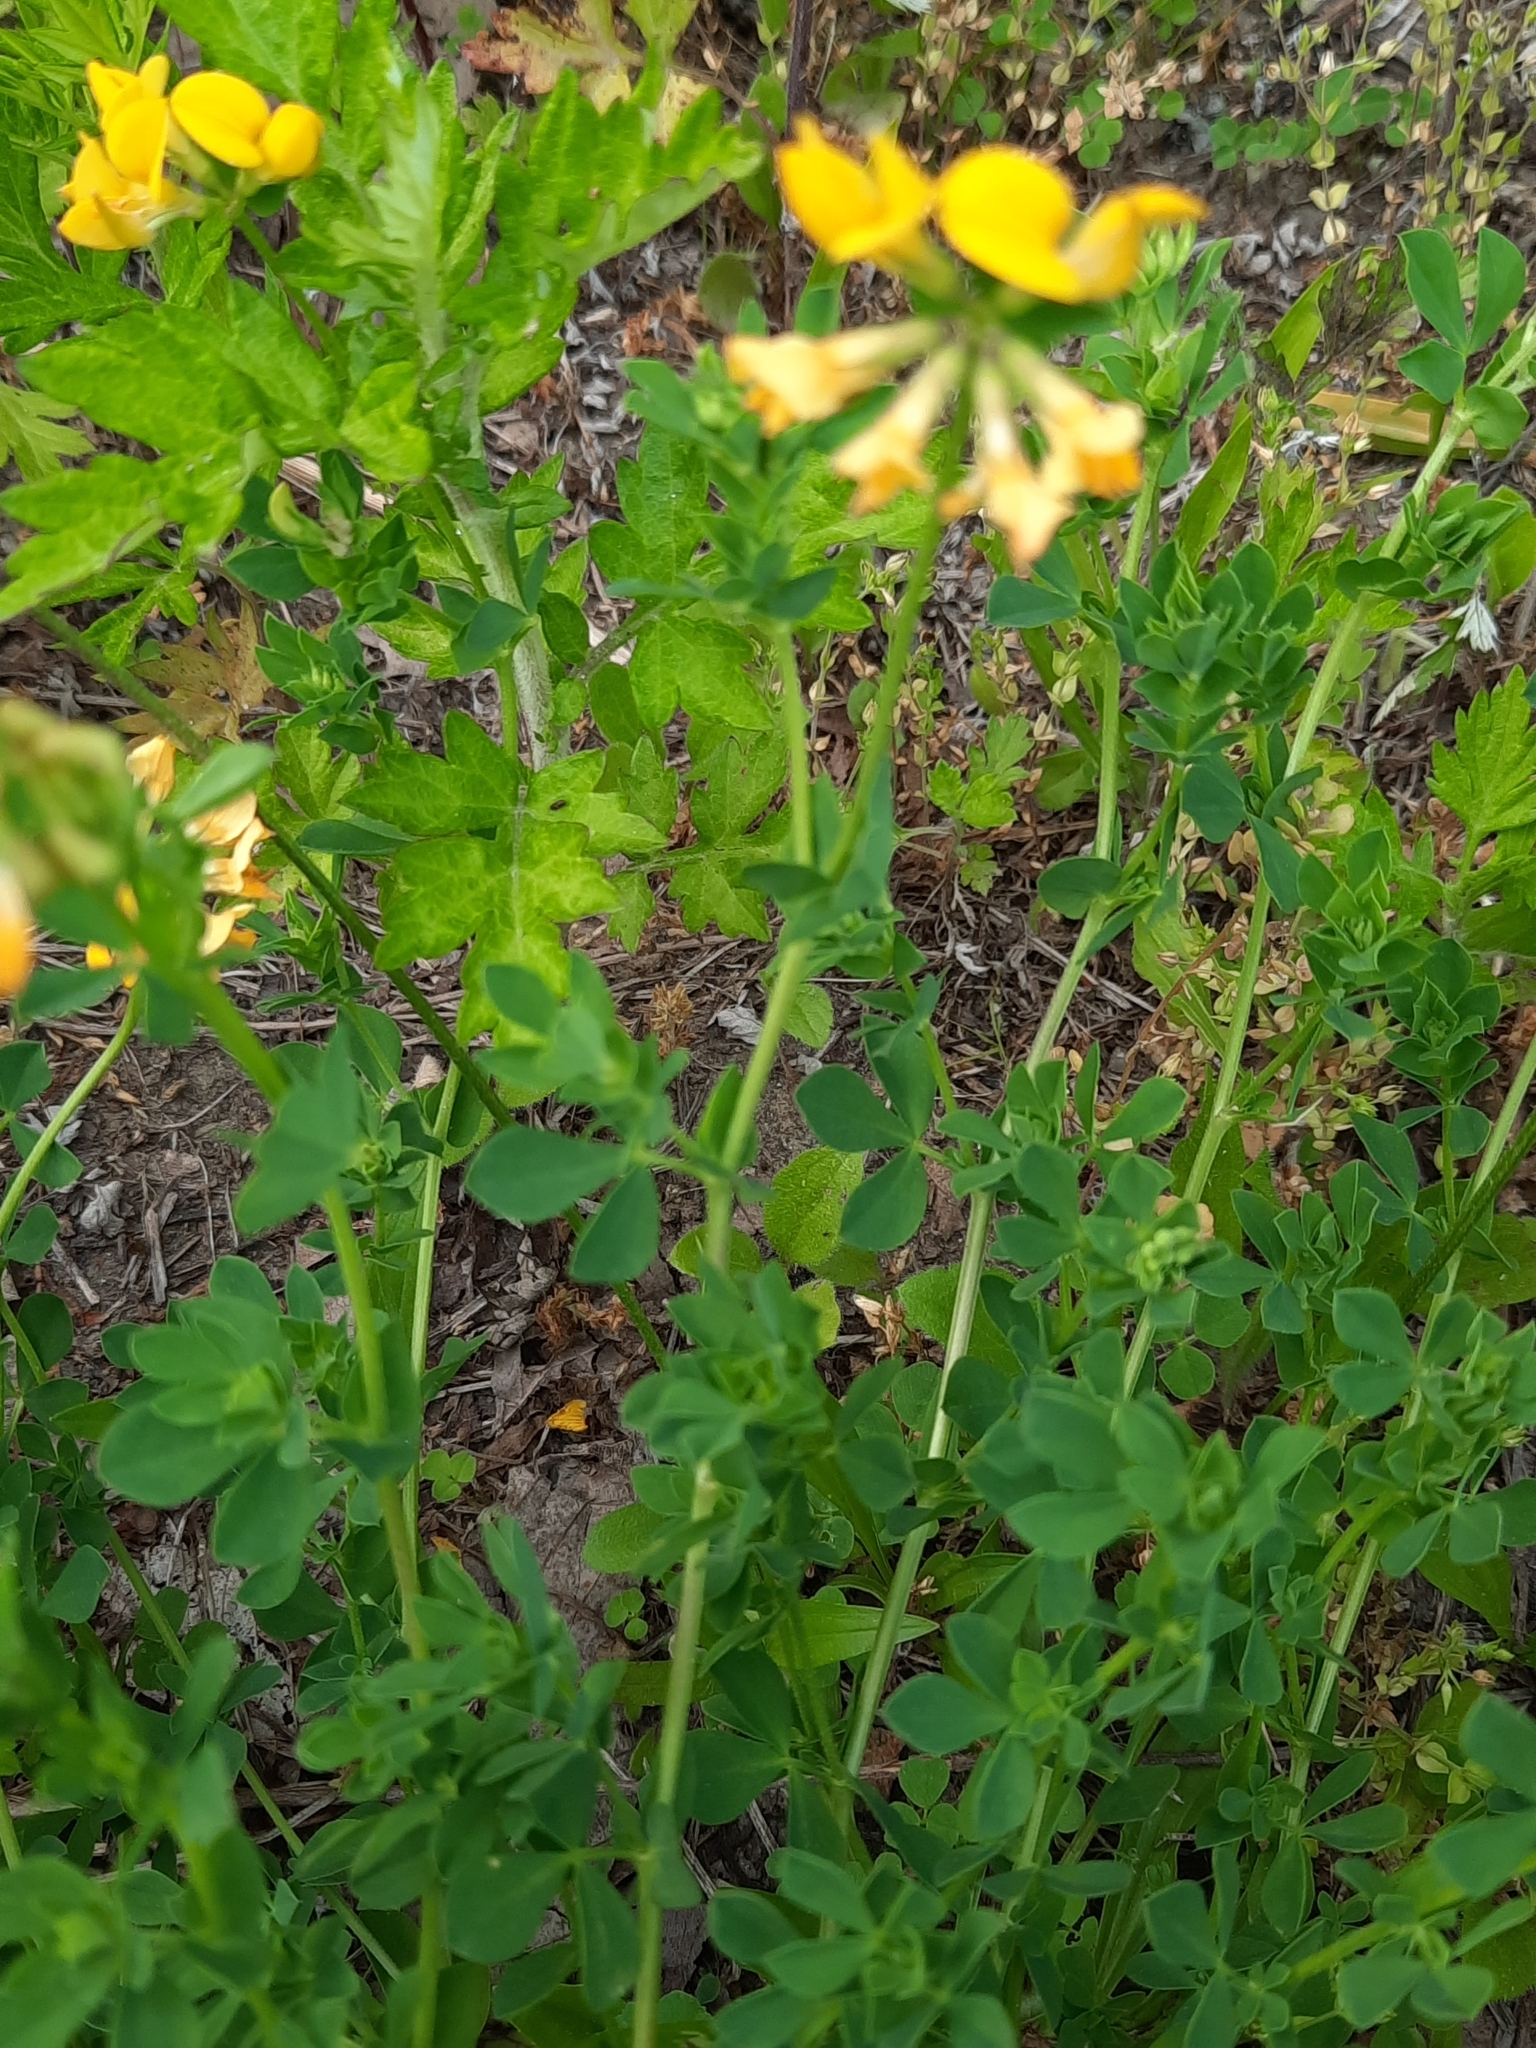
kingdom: Plantae
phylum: Tracheophyta
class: Magnoliopsida
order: Fabales
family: Fabaceae
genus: Lotus
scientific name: Lotus corniculatus
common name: Common bird's-foot-trefoil
